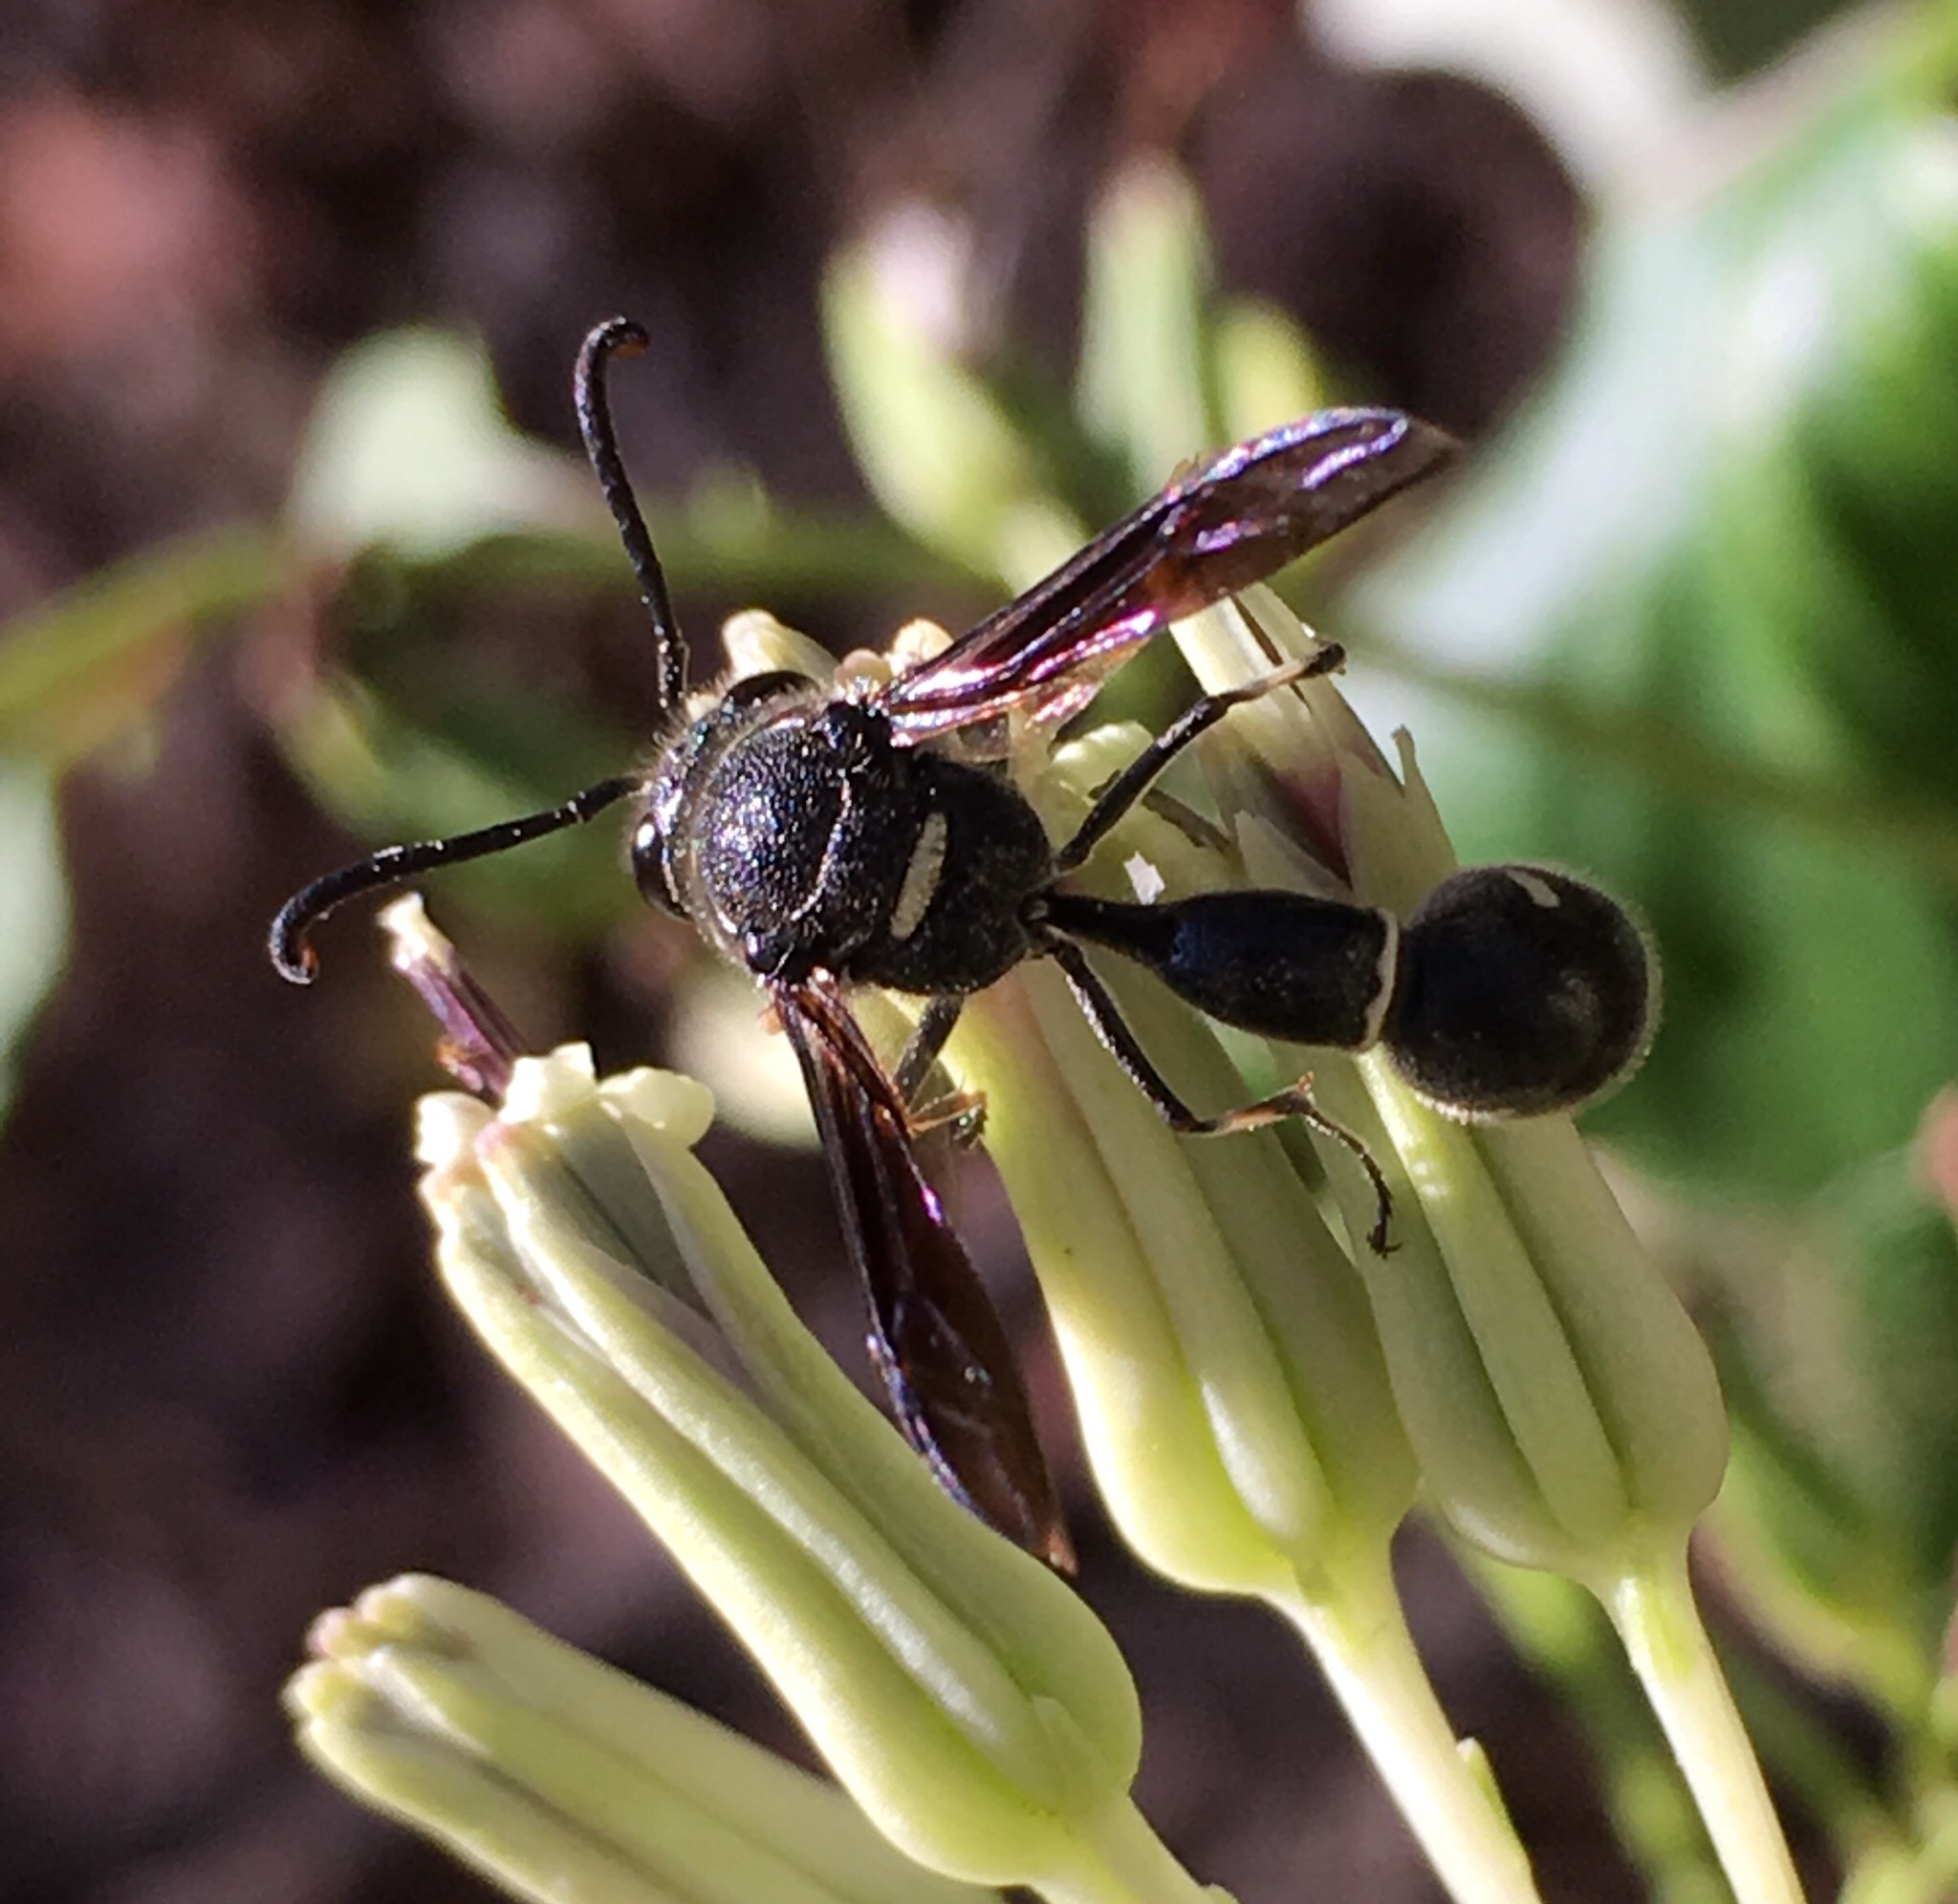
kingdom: Animalia
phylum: Arthropoda
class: Insecta
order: Hymenoptera
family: Vespidae
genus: Eumenes
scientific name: Eumenes fraternus
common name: Fraternal potter wasp
